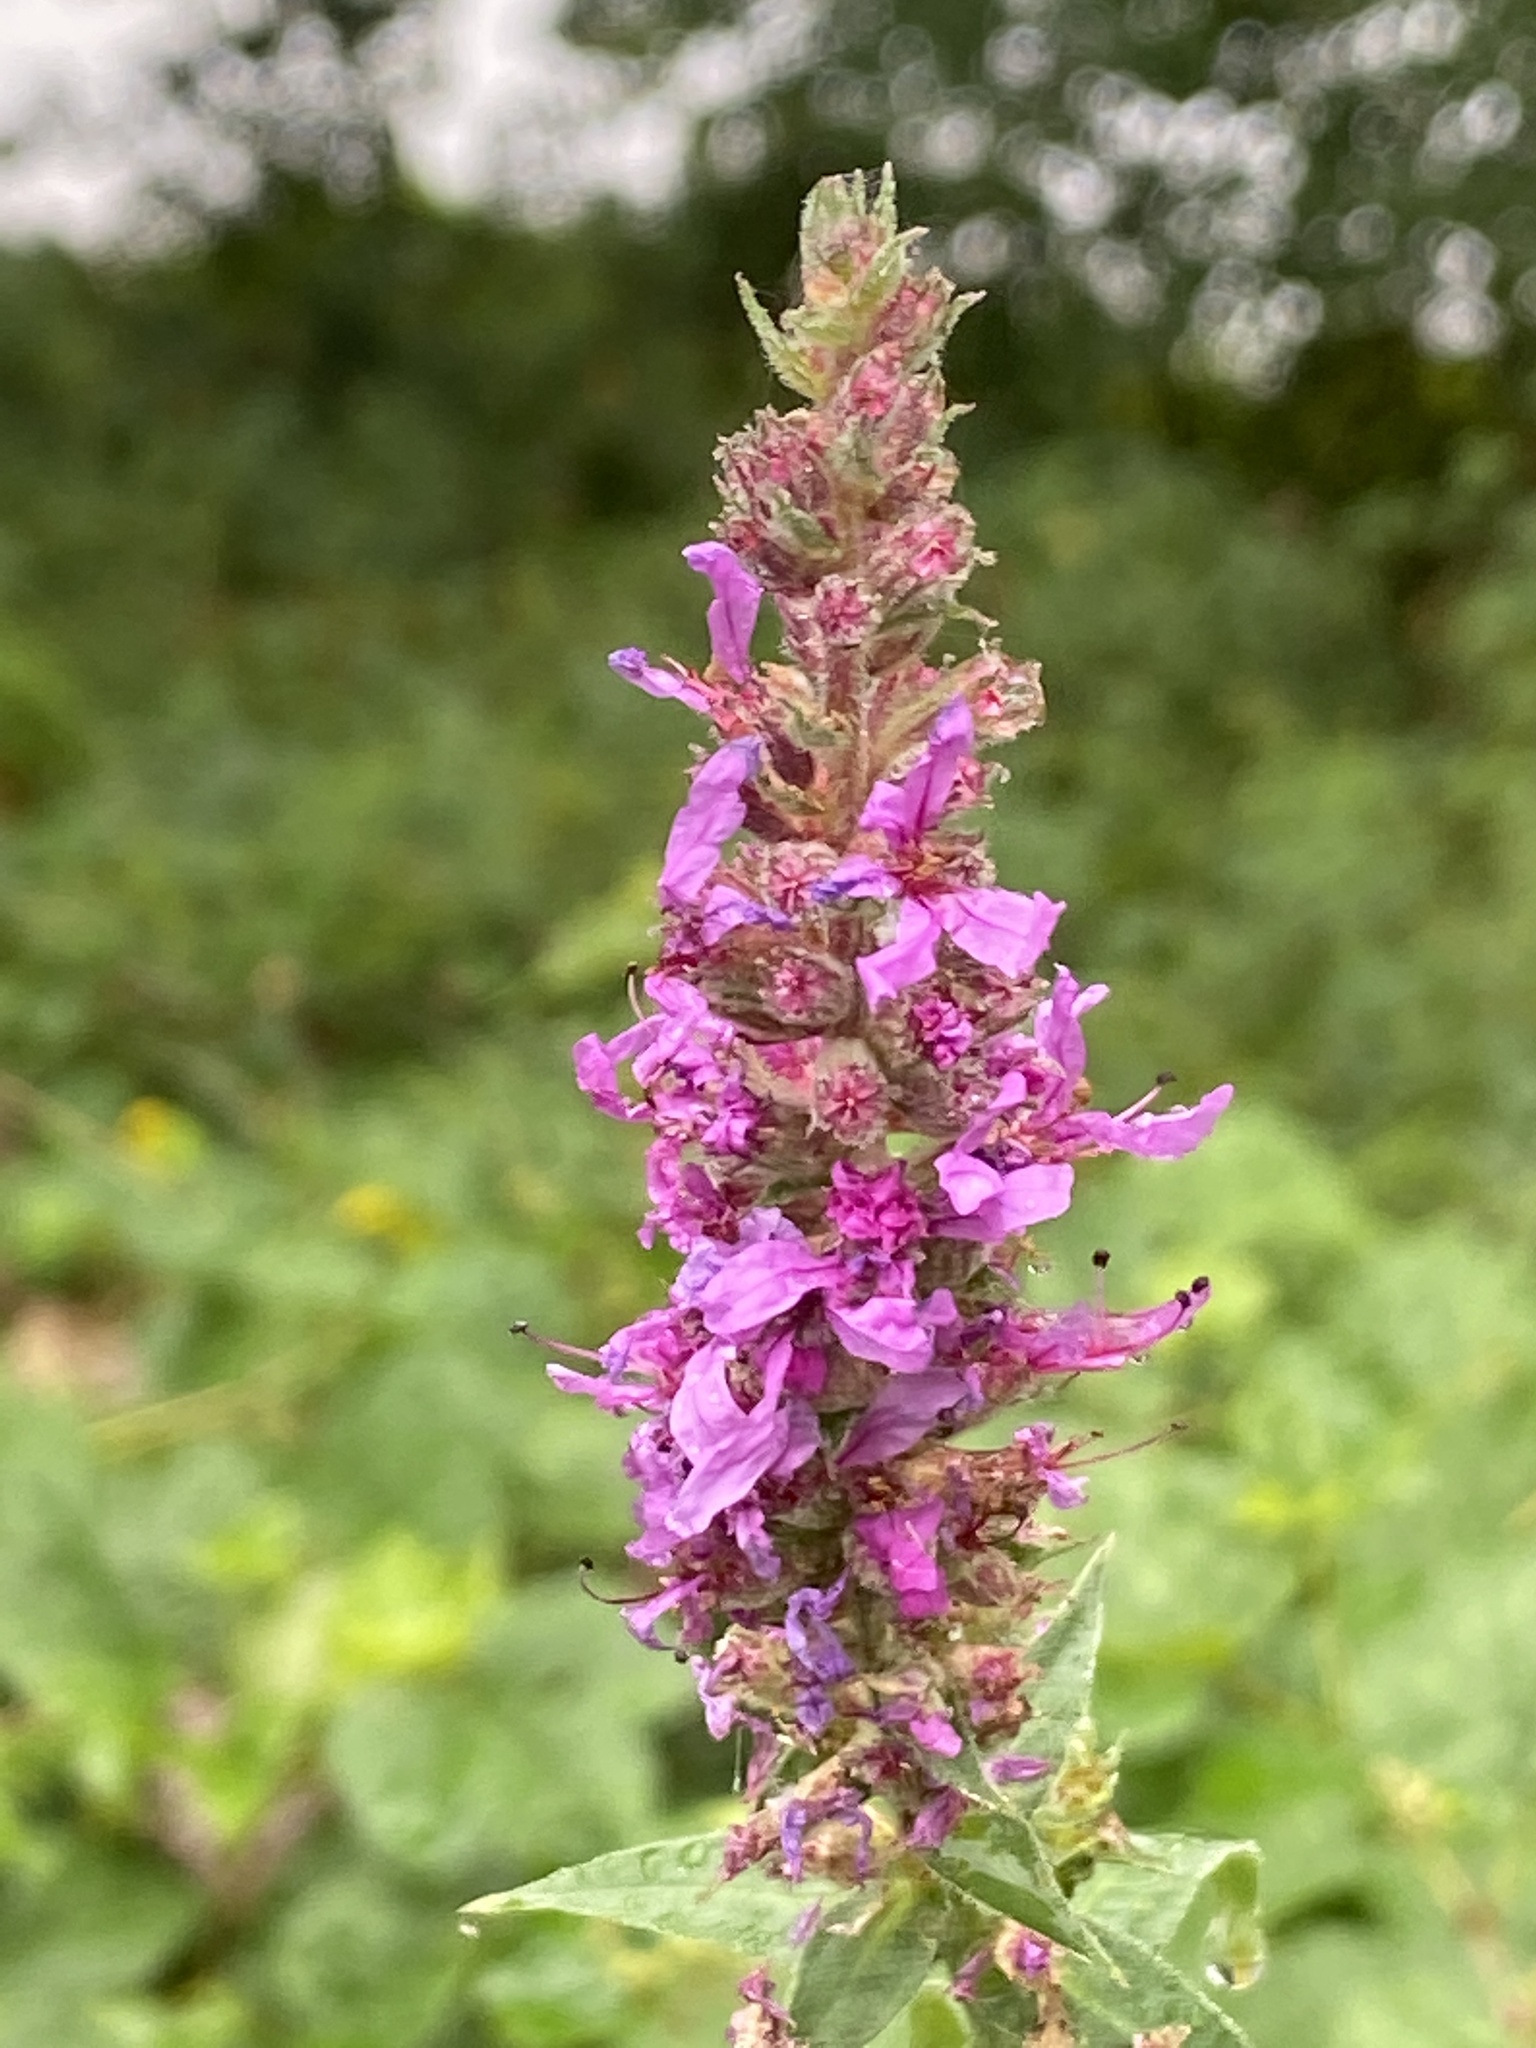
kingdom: Plantae
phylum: Tracheophyta
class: Magnoliopsida
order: Myrtales
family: Lythraceae
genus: Lythrum
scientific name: Lythrum salicaria
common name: Purple loosestrife
